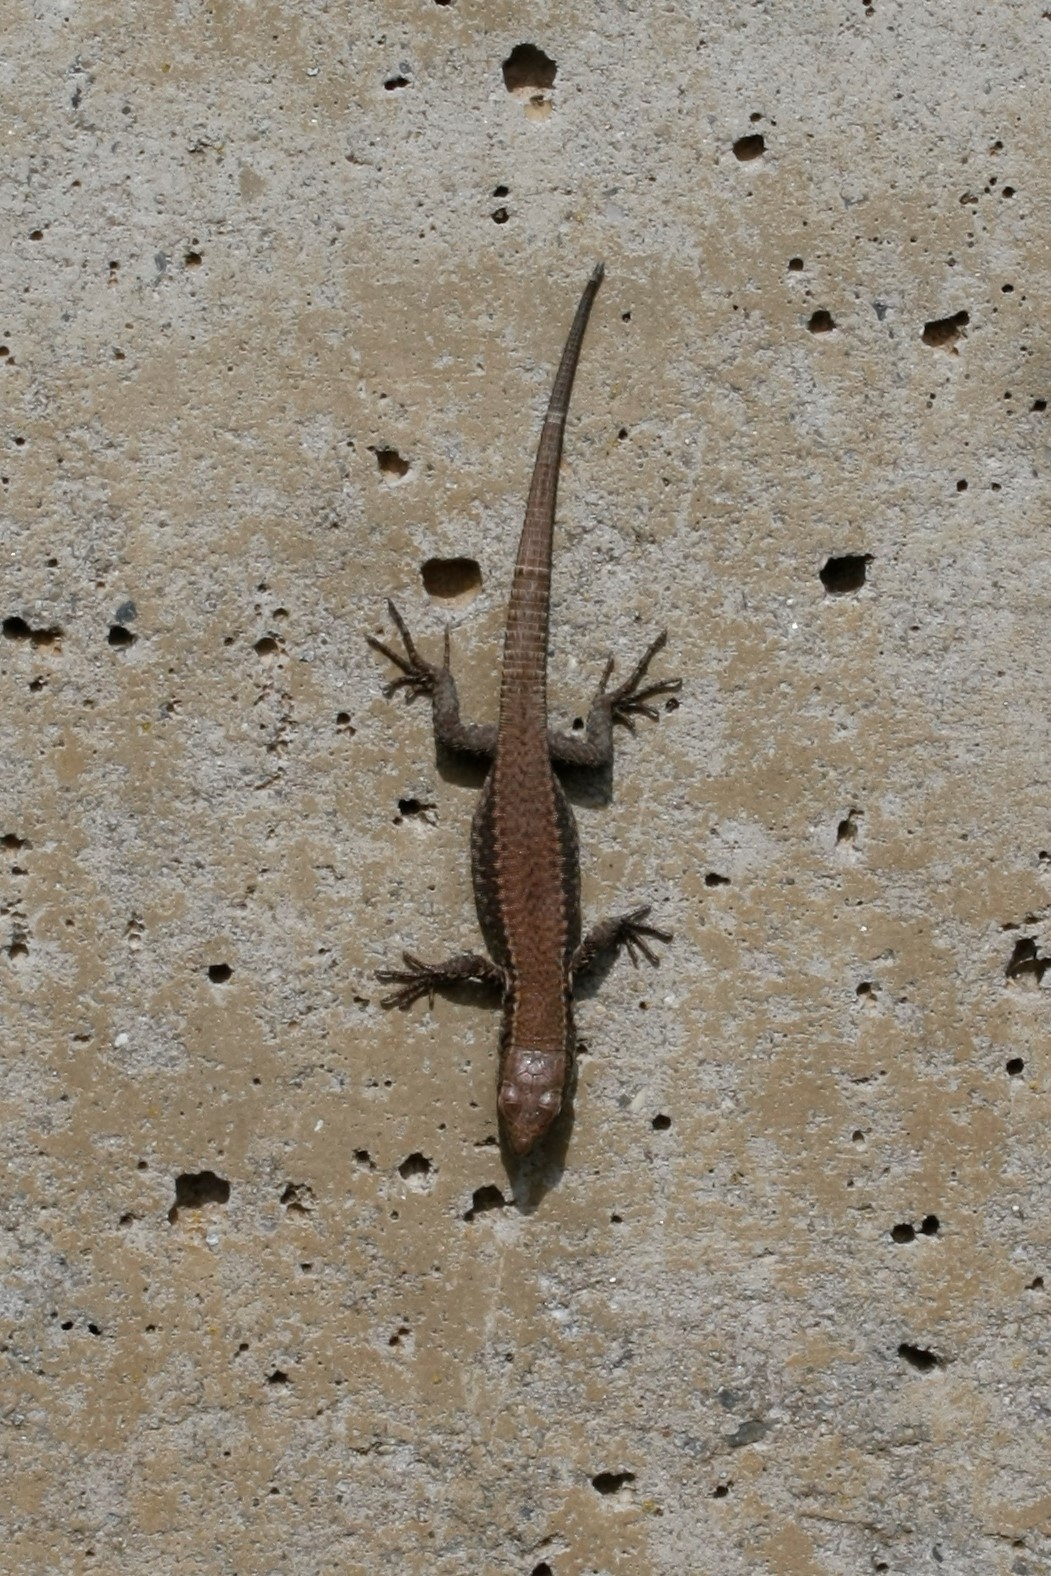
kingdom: Animalia
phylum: Chordata
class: Squamata
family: Lacertidae
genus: Podarcis
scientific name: Podarcis muralis
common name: Common wall lizard
